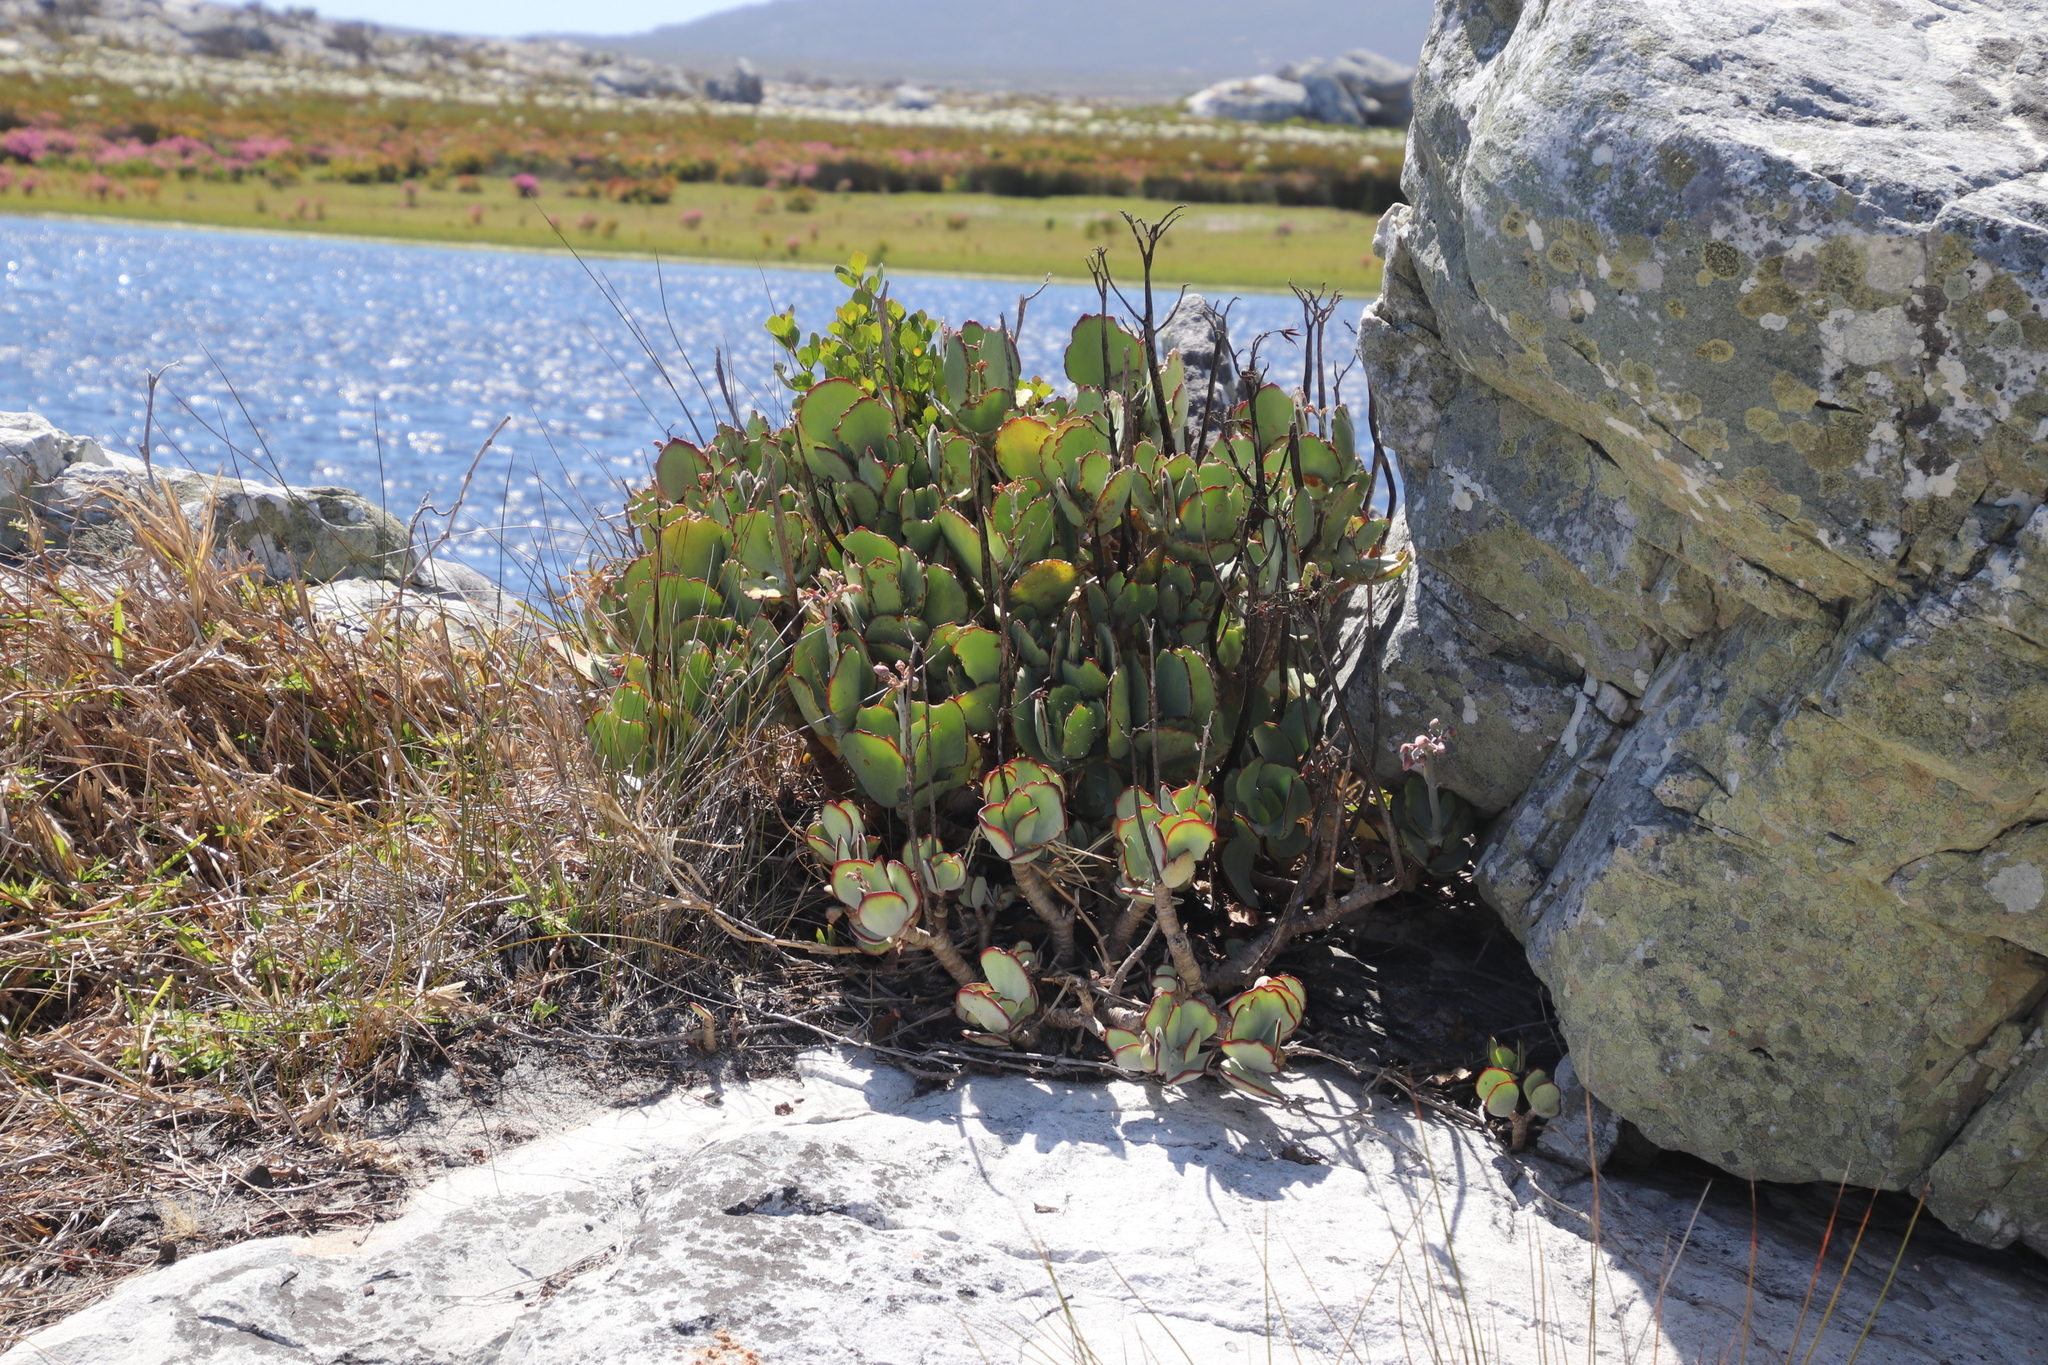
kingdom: Plantae
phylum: Tracheophyta
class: Magnoliopsida
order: Saxifragales
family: Crassulaceae
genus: Cotyledon
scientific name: Cotyledon orbiculata
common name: Pig's ear
